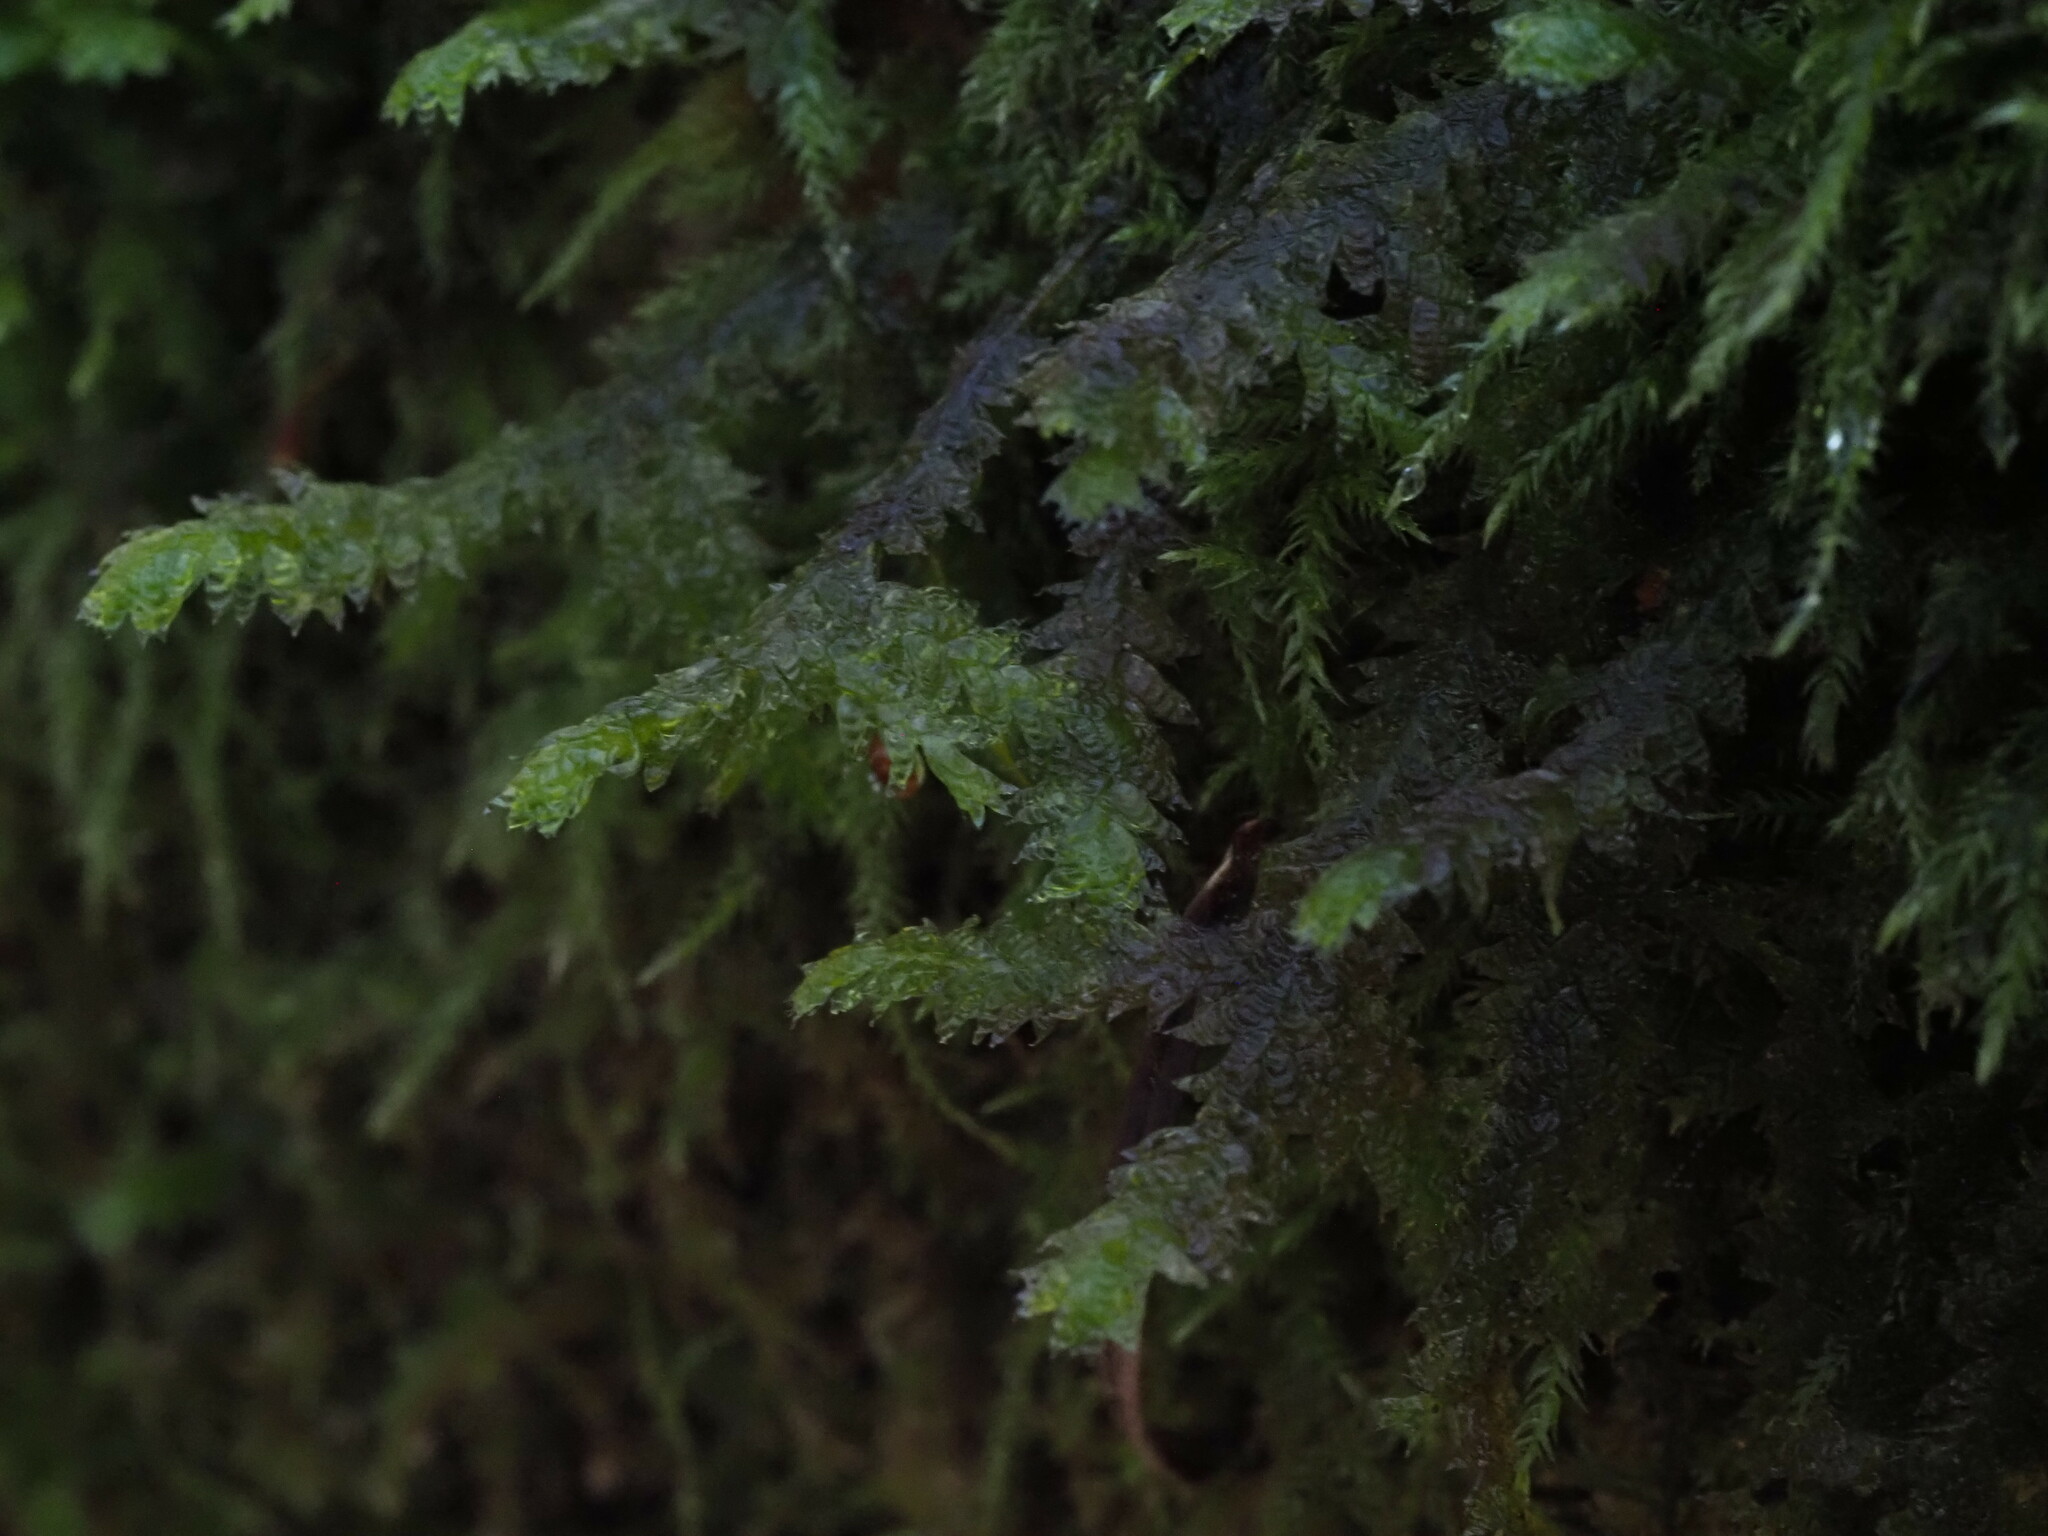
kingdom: Plantae
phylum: Bryophyta
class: Bryopsida
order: Hypnales
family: Neckeraceae
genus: Neckera
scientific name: Neckera douglasii
